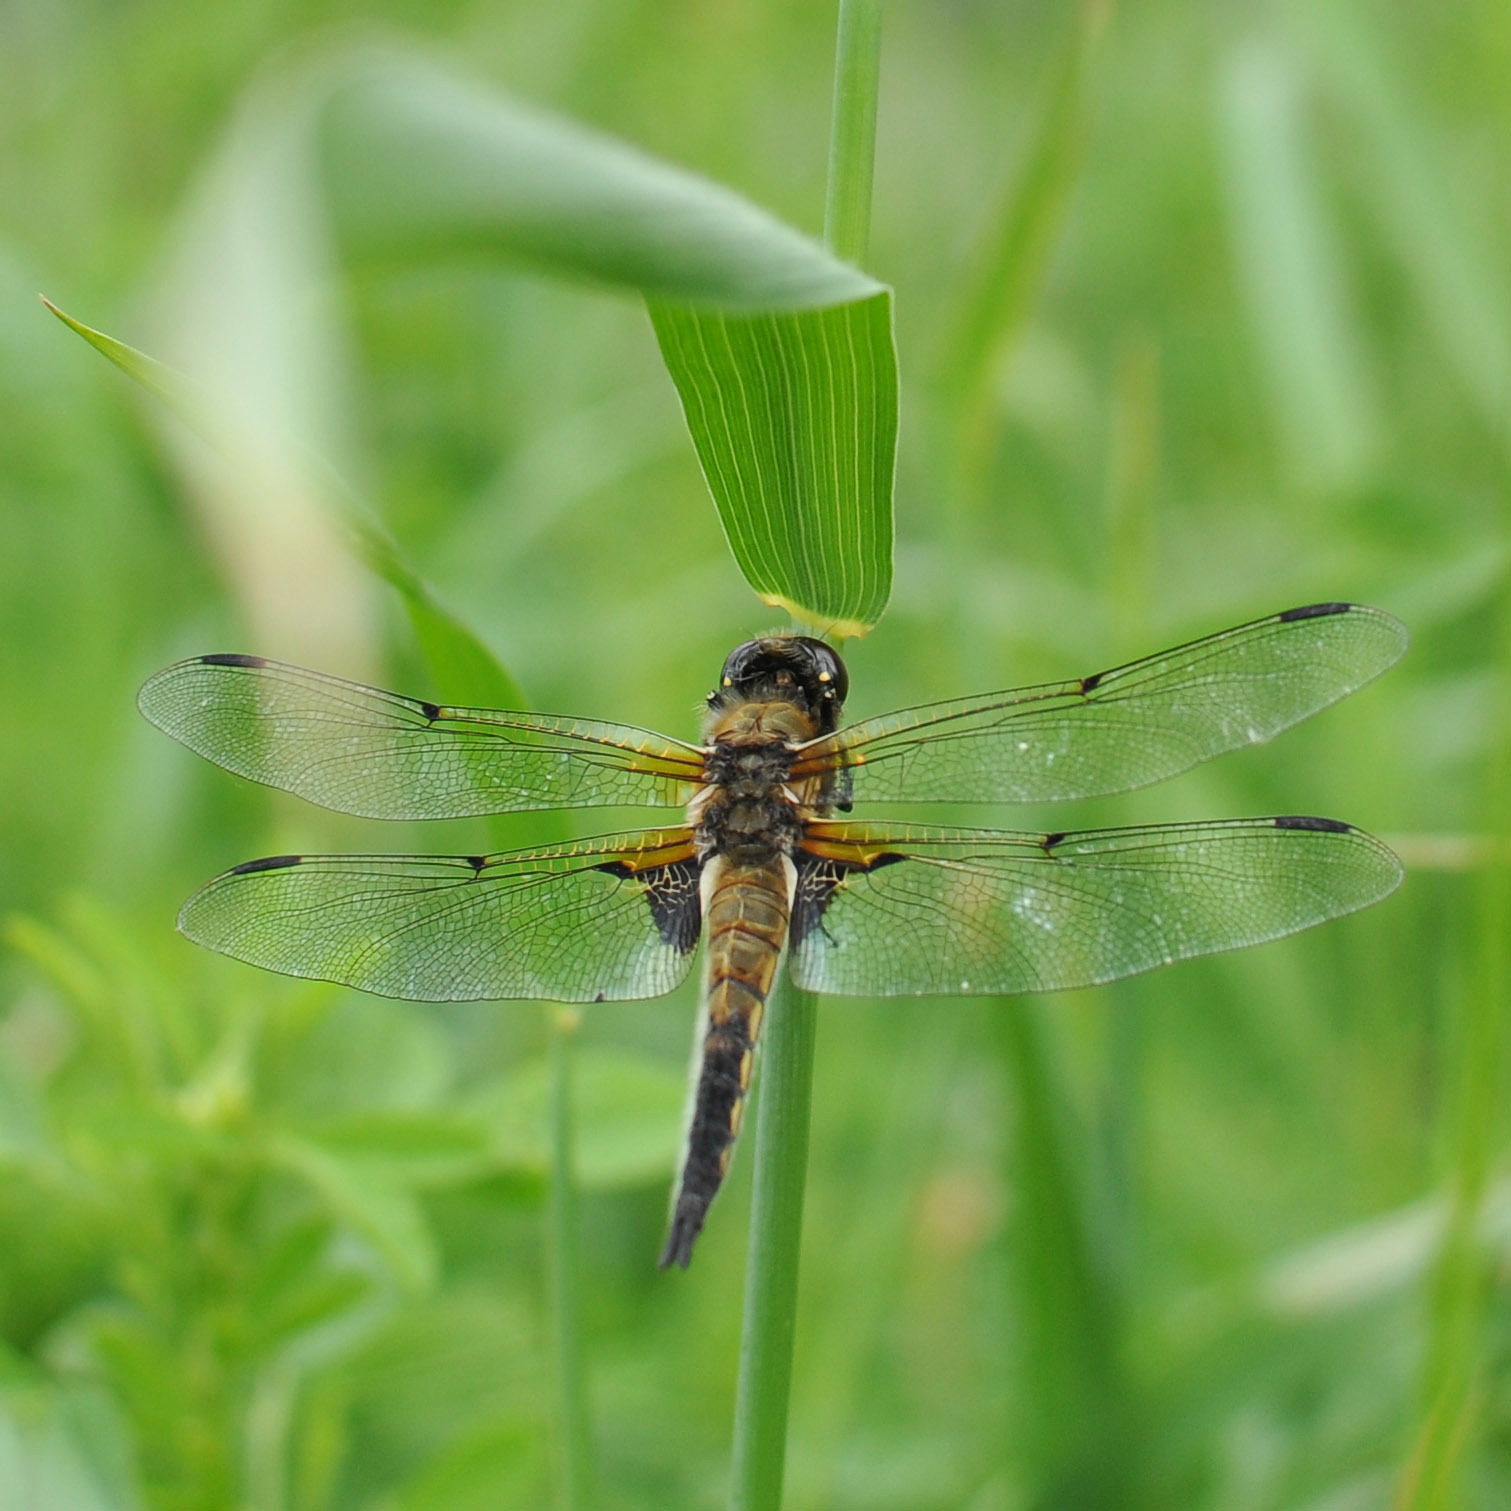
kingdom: Animalia
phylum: Arthropoda
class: Insecta
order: Odonata
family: Libellulidae
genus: Libellula
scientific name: Libellula quadrimaculata
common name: Four-spotted chaser
